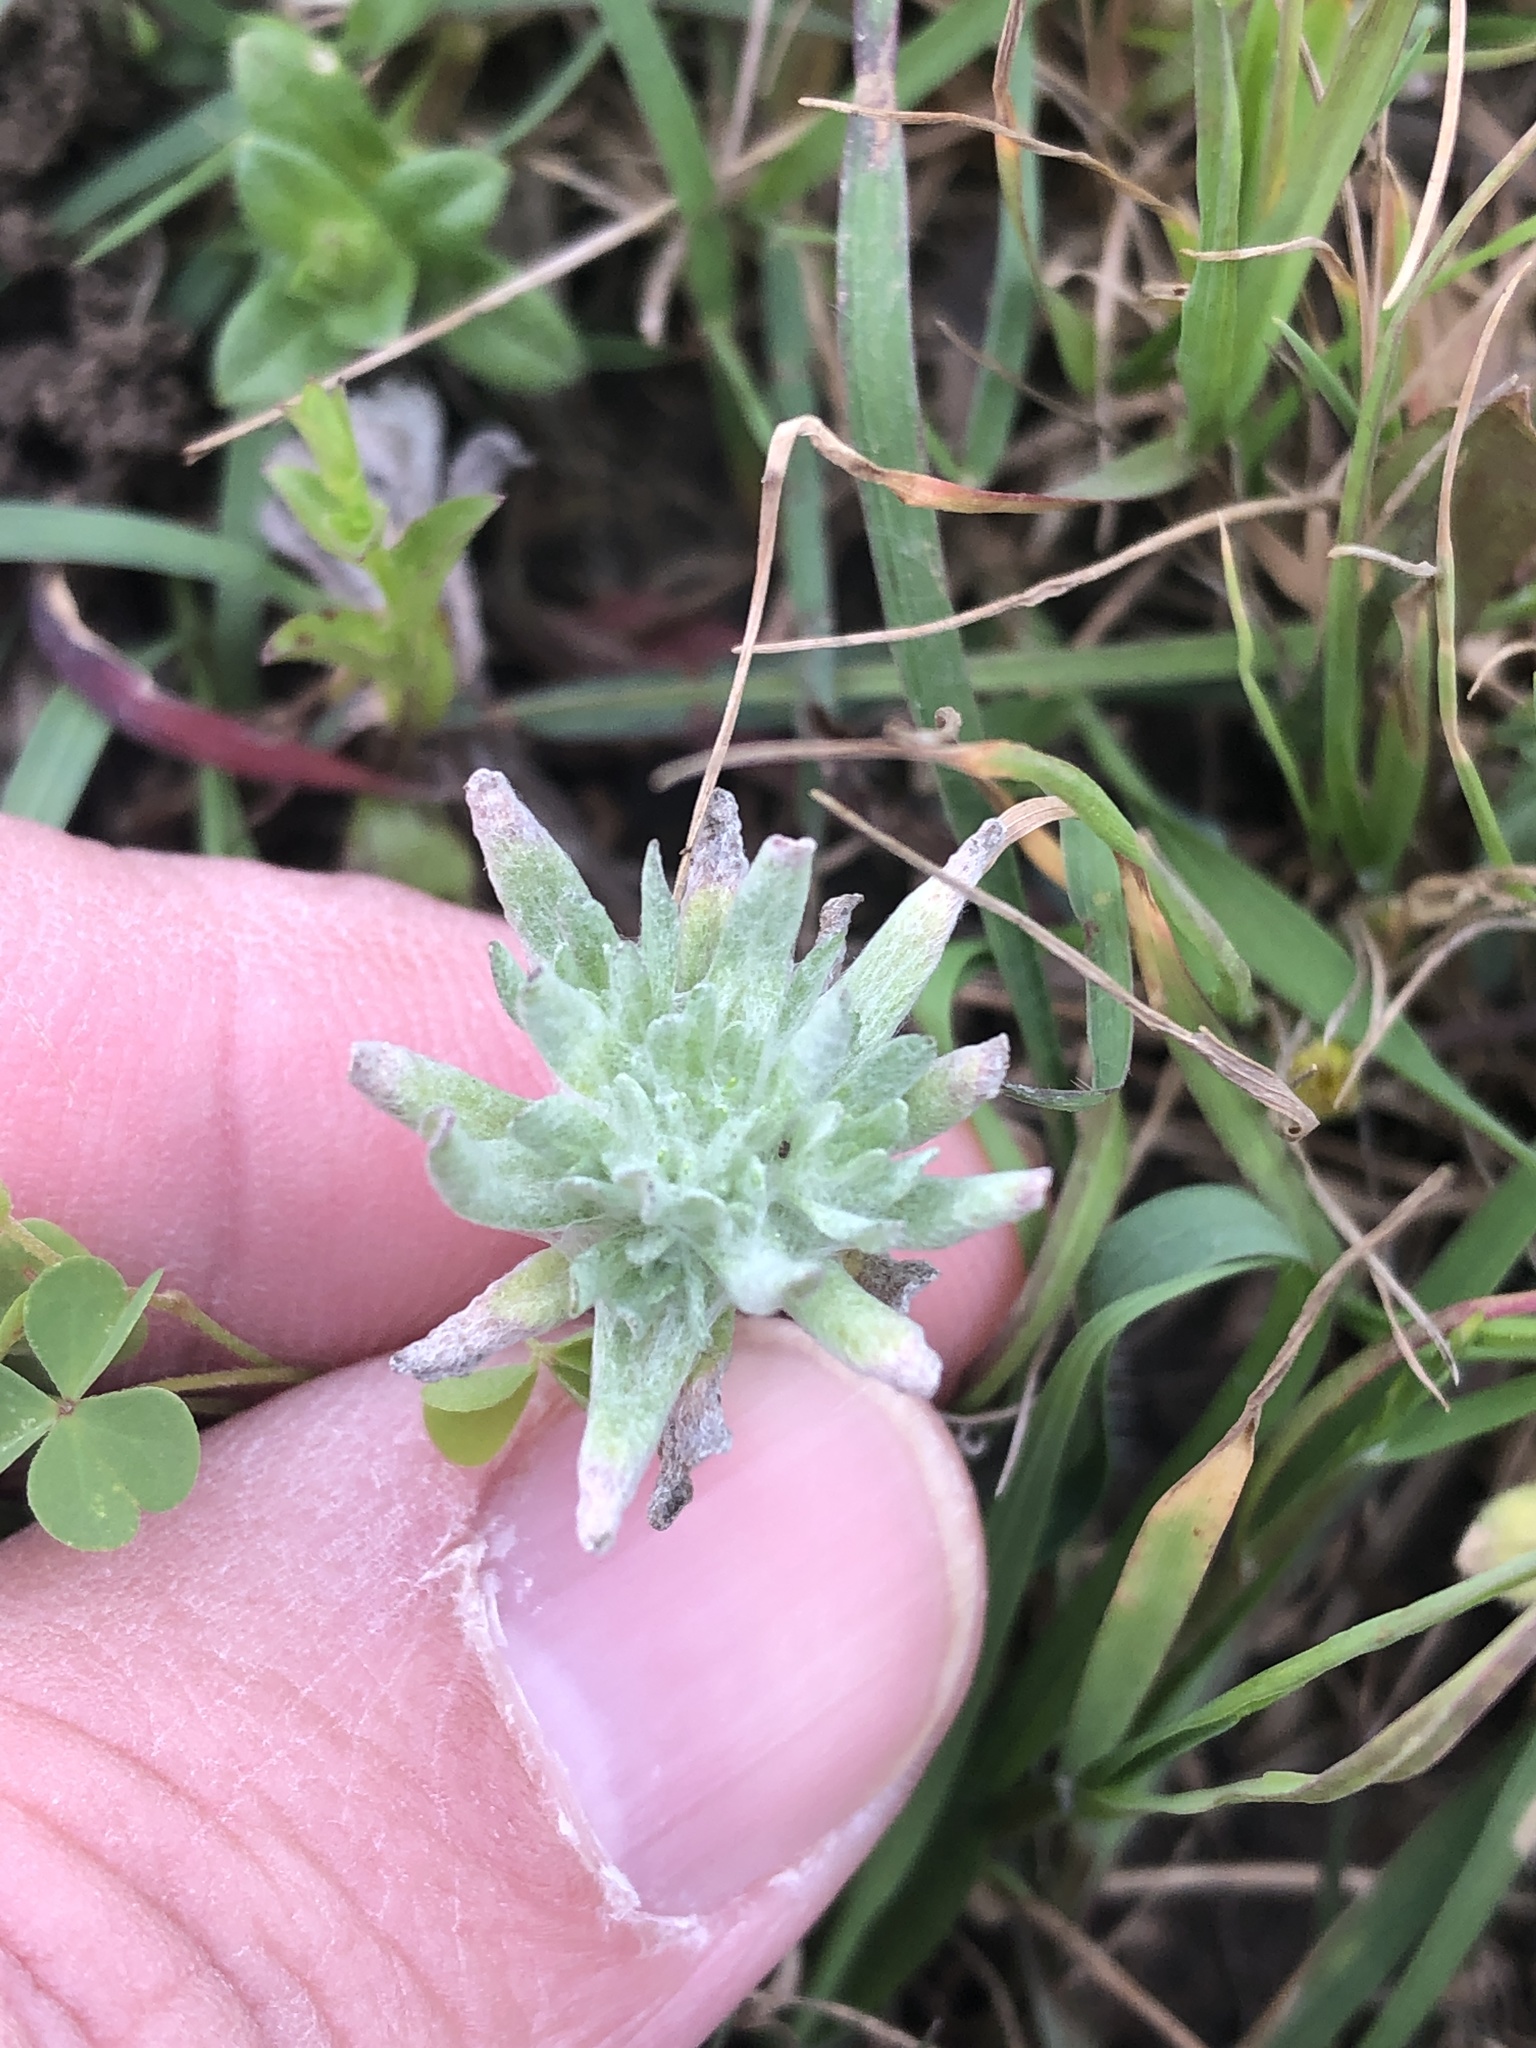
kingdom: Plantae
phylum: Tracheophyta
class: Magnoliopsida
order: Asterales
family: Asteraceae
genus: Diaperia
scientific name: Diaperia prolifera
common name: Big-head rabbit-tobacco
